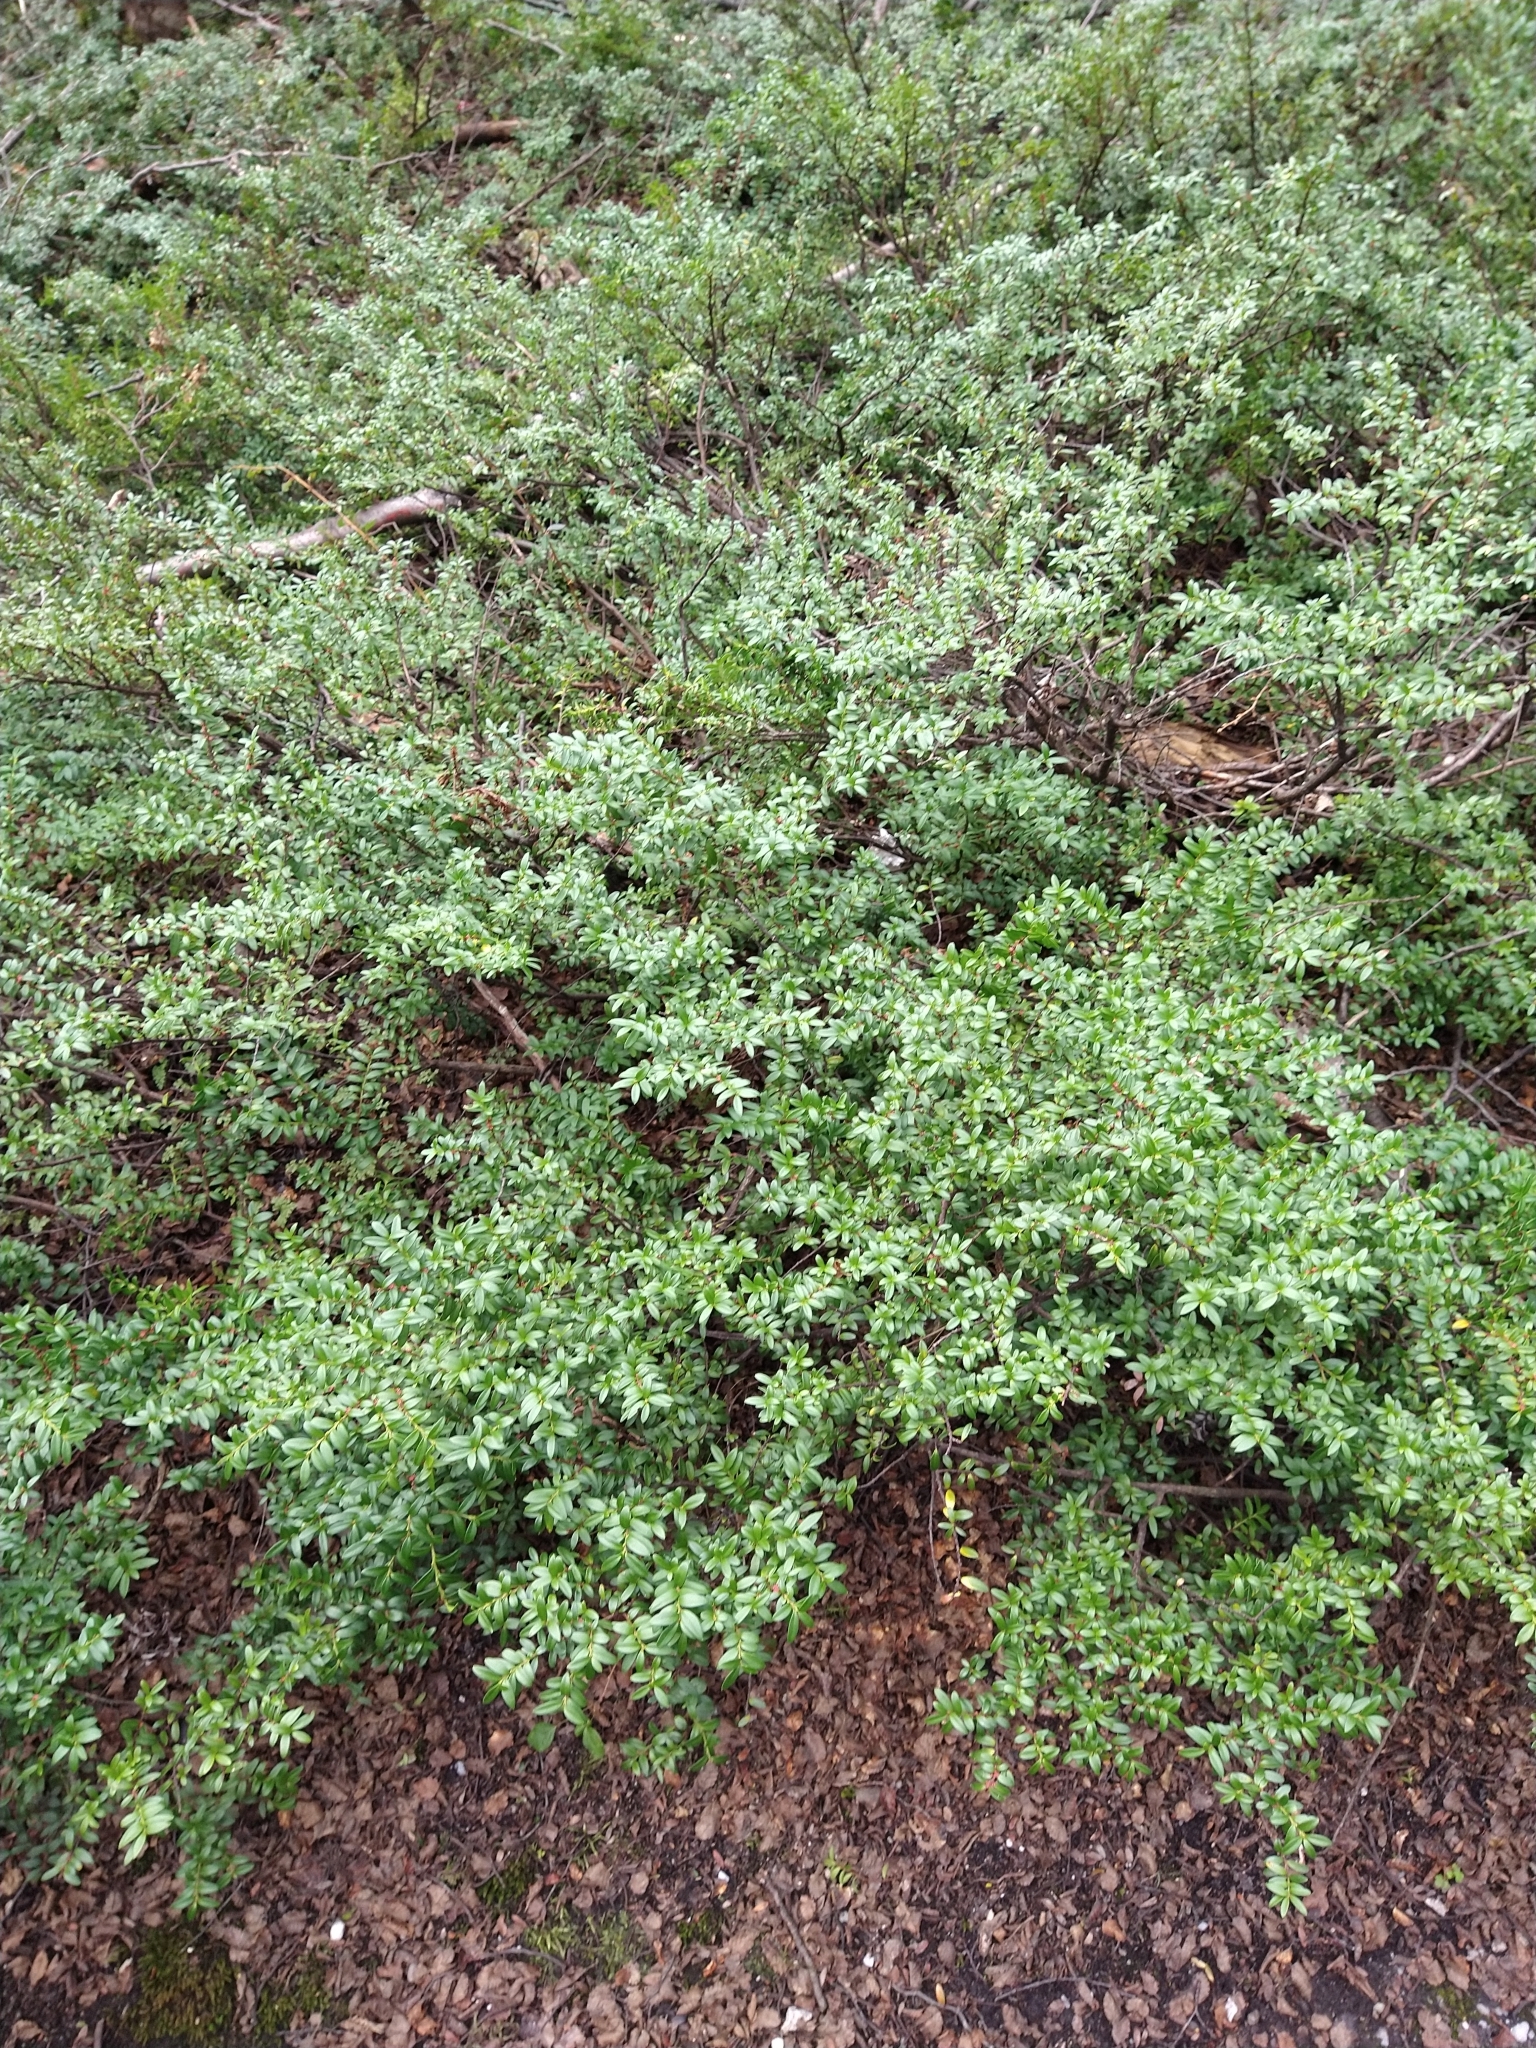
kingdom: Plantae
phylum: Tracheophyta
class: Magnoliopsida
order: Celastrales
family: Celastraceae
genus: Maytenus
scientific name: Maytenus disticha
